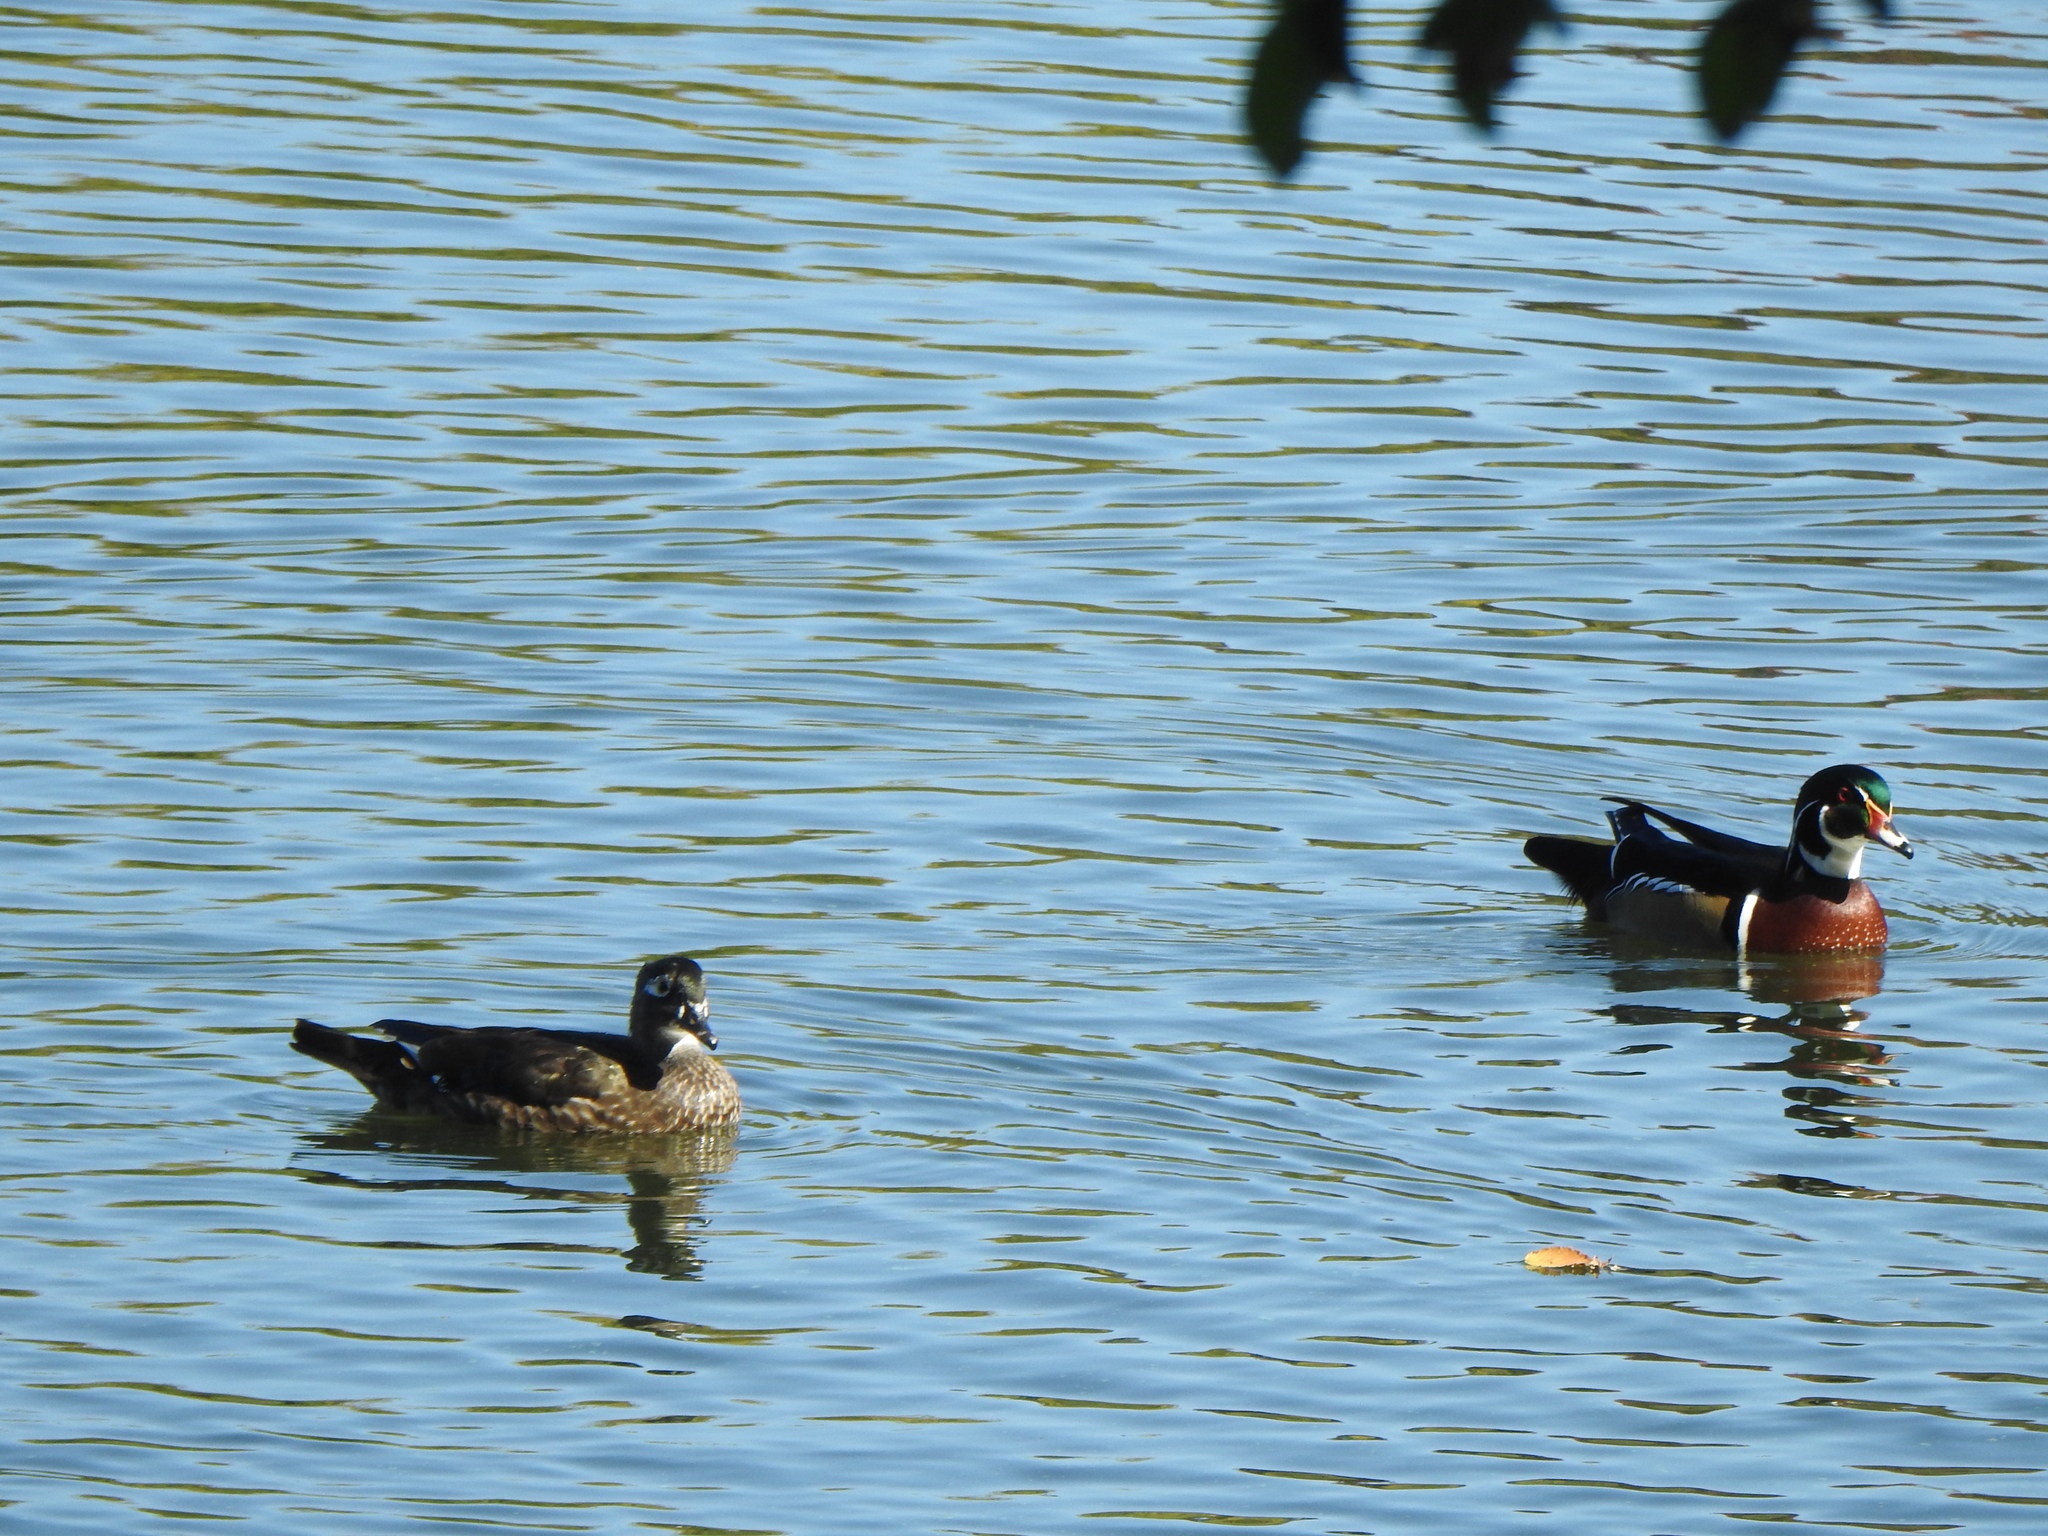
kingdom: Animalia
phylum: Chordata
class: Aves
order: Anseriformes
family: Anatidae
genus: Aix
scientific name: Aix sponsa
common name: Wood duck
